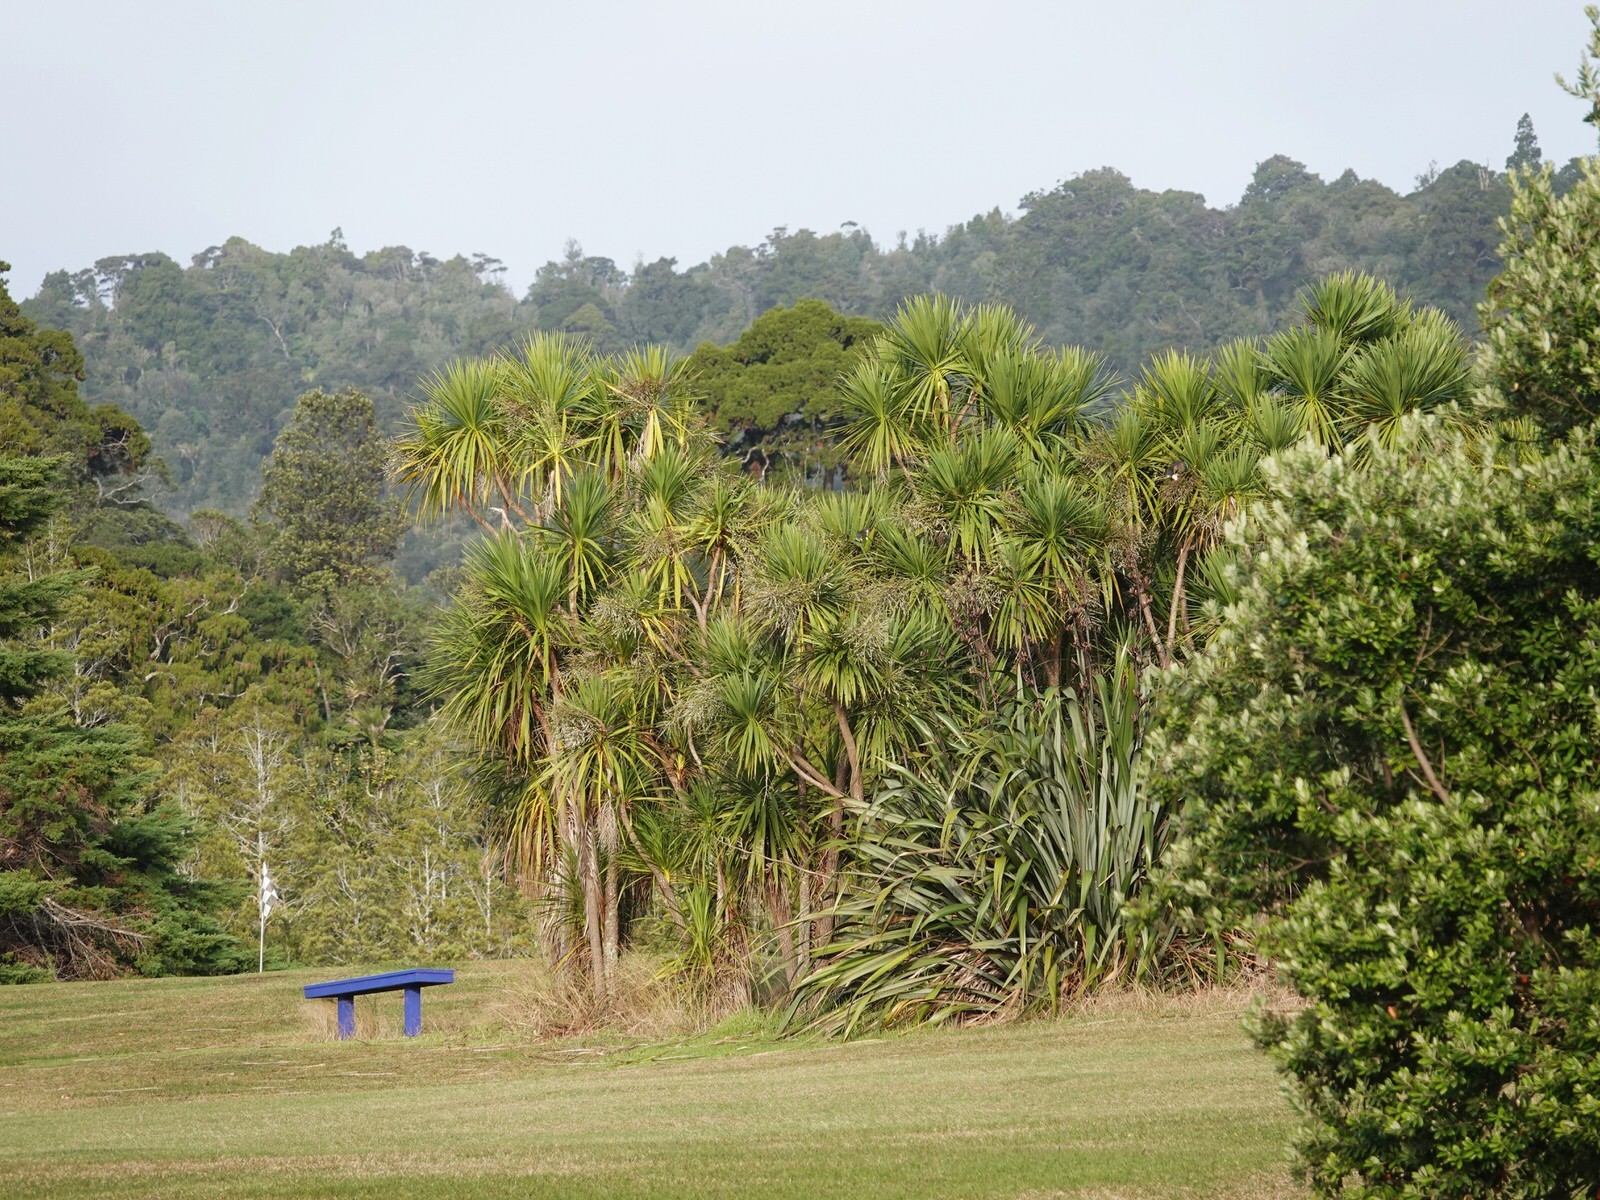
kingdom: Animalia
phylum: Chordata
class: Aves
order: Columbiformes
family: Columbidae
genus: Hemiphaga
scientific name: Hemiphaga novaeseelandiae
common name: New zealand pigeon
